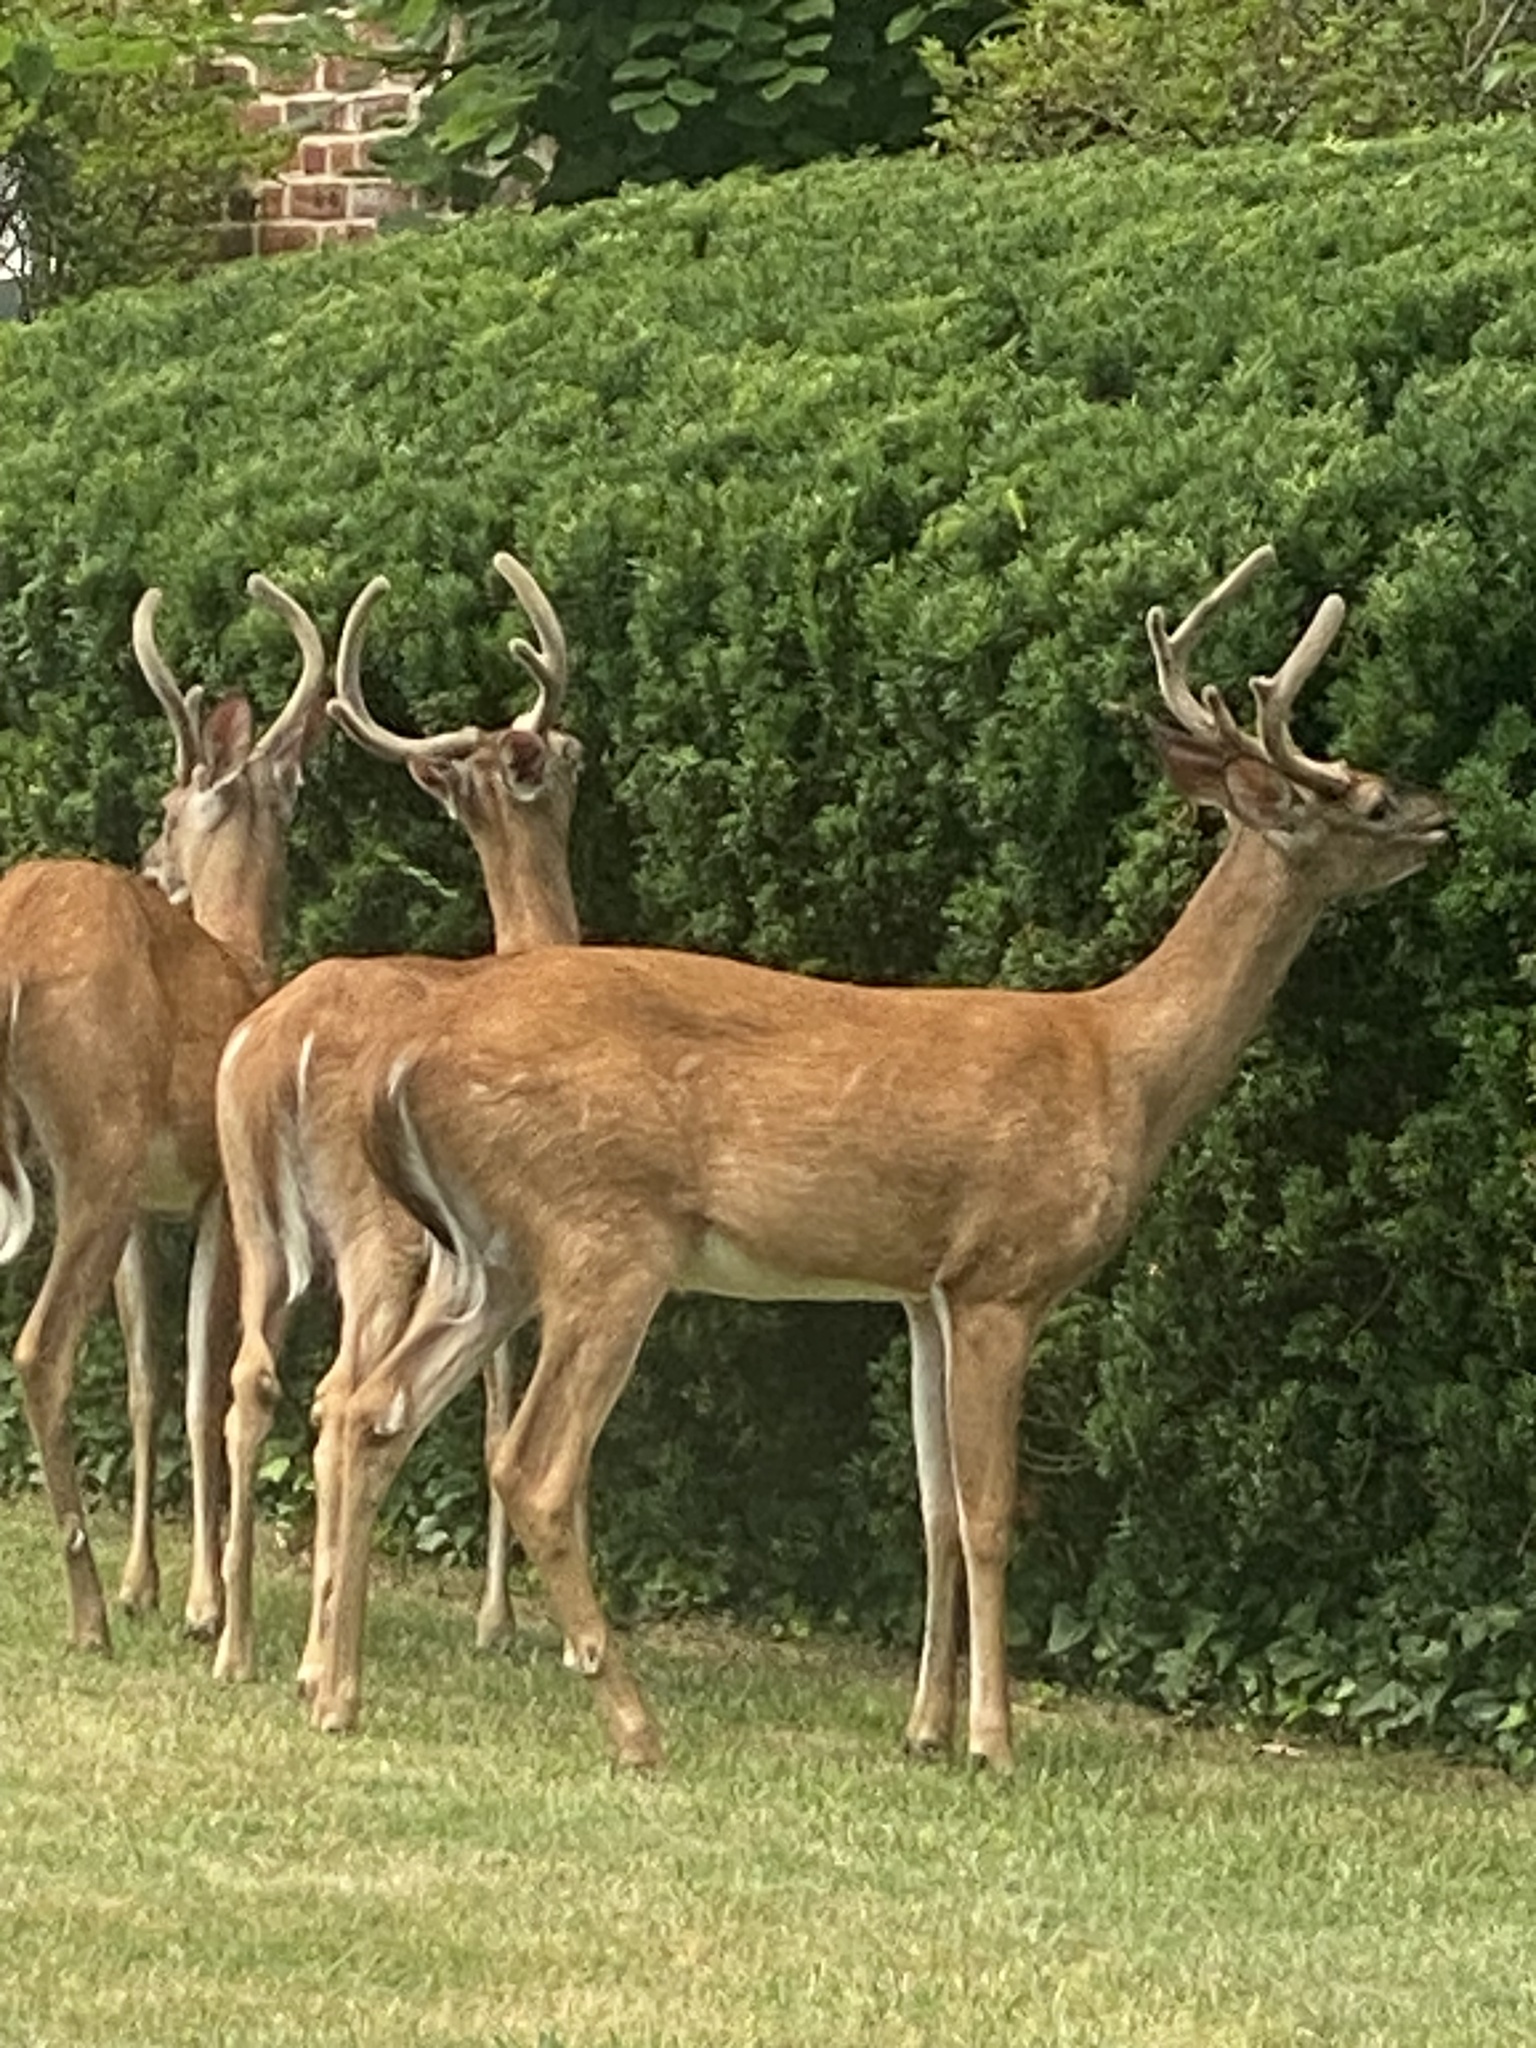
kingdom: Animalia
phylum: Chordata
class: Mammalia
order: Artiodactyla
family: Cervidae
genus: Odocoileus
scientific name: Odocoileus virginianus
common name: White-tailed deer
